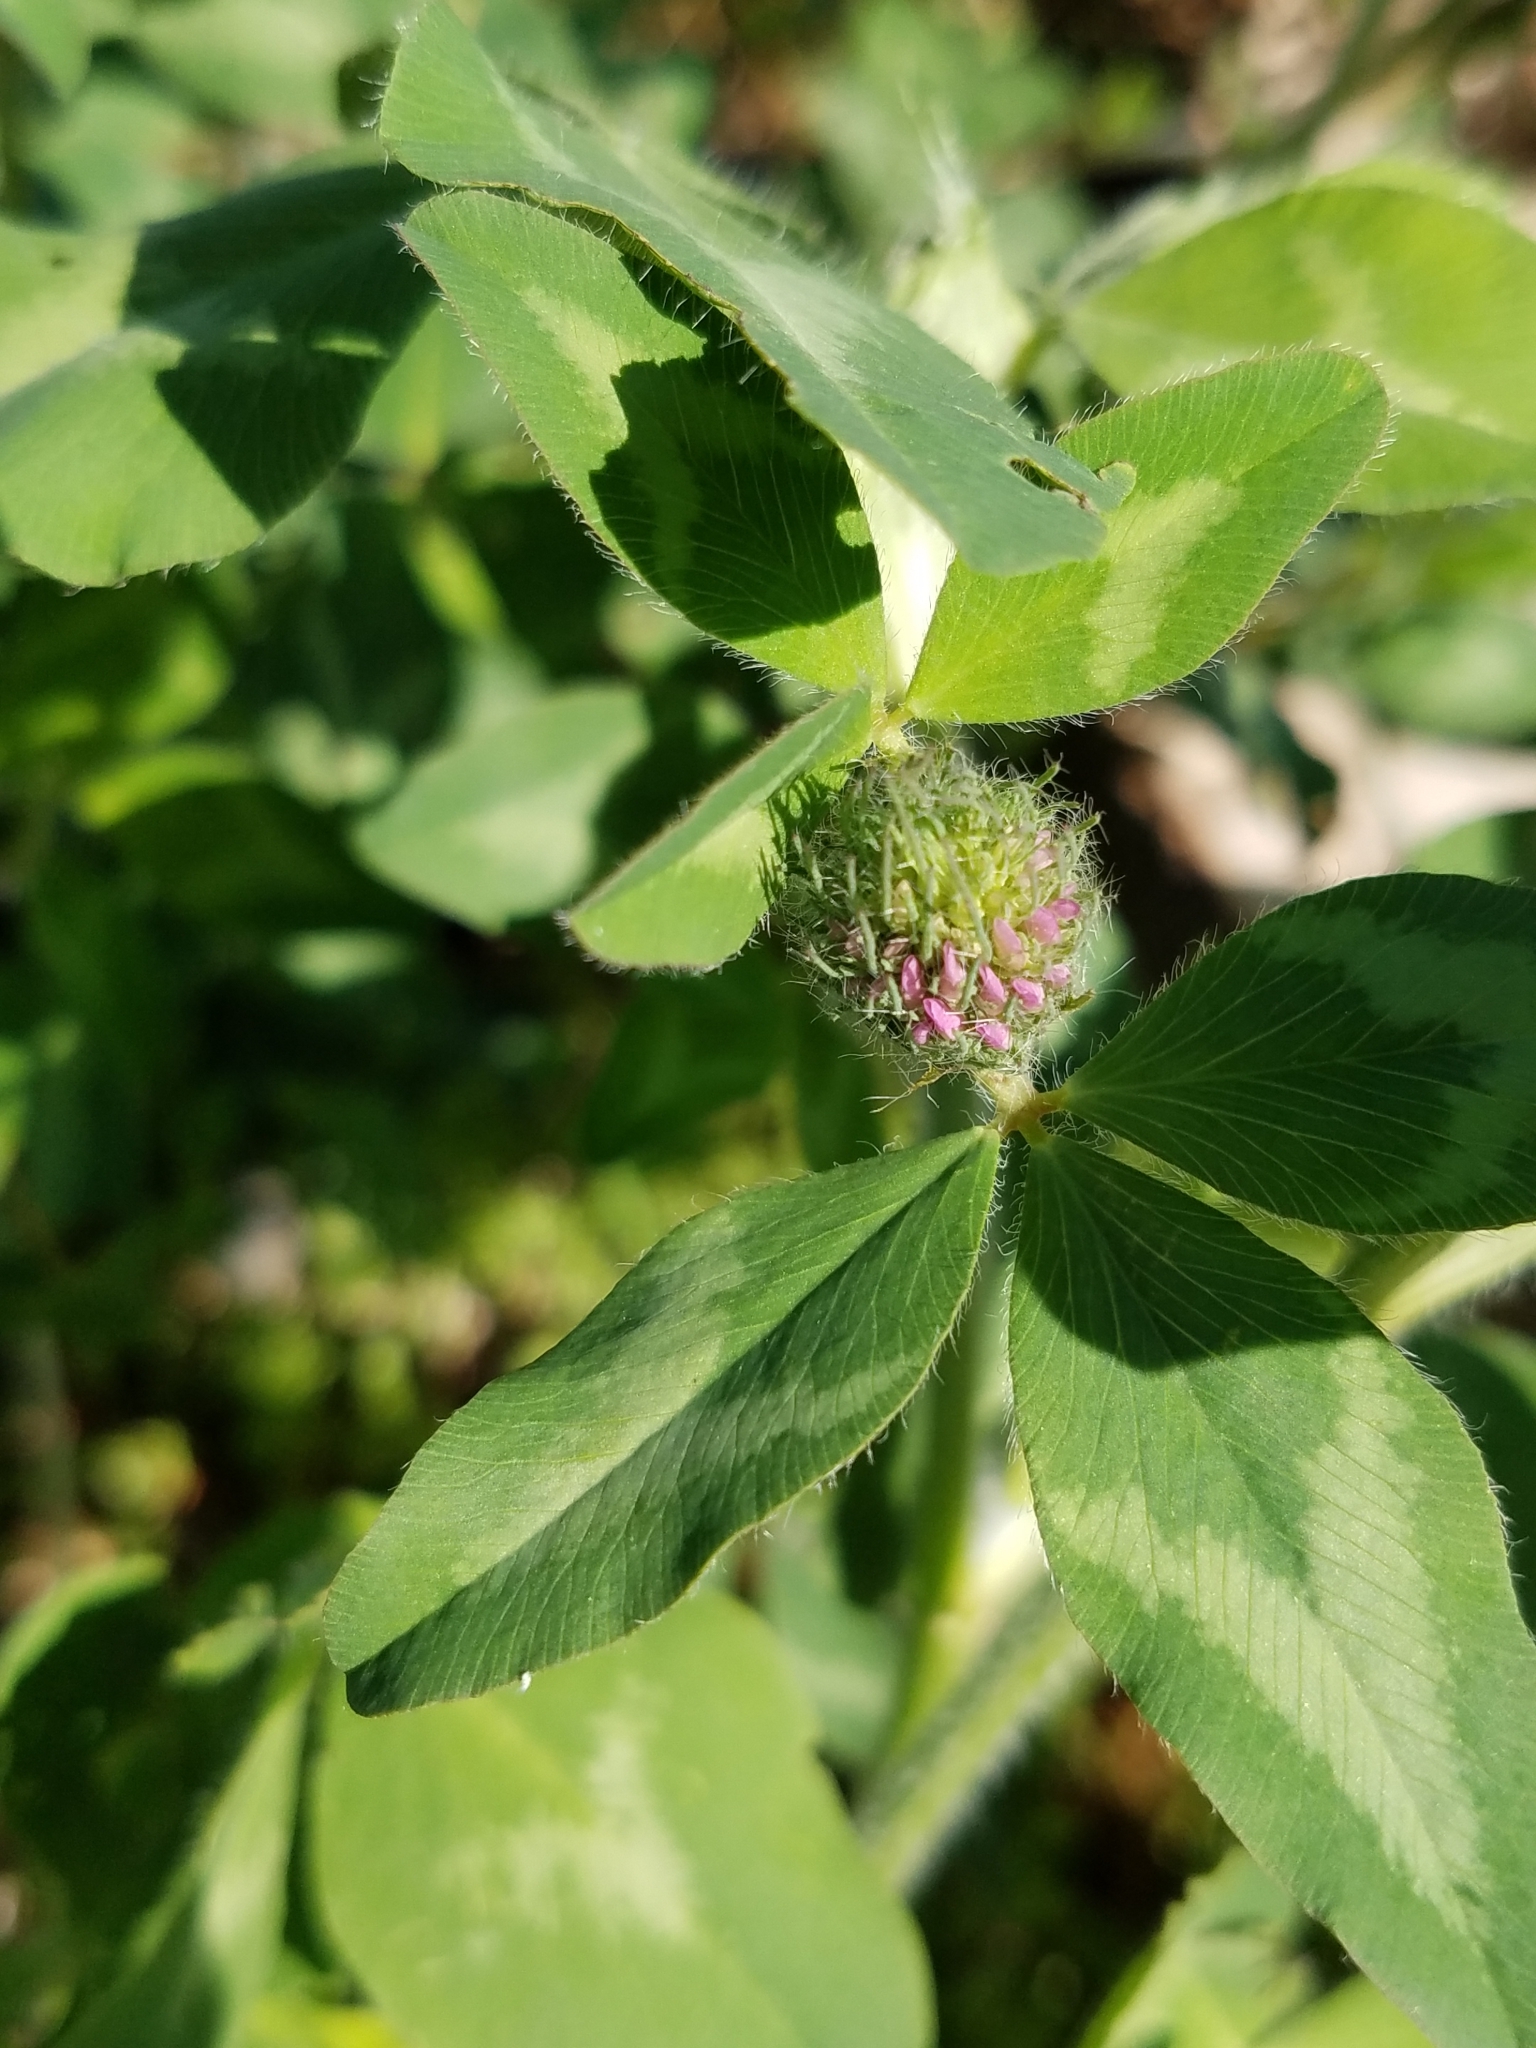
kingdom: Plantae
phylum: Tracheophyta
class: Magnoliopsida
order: Fabales
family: Fabaceae
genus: Trifolium
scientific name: Trifolium pratense
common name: Red clover
